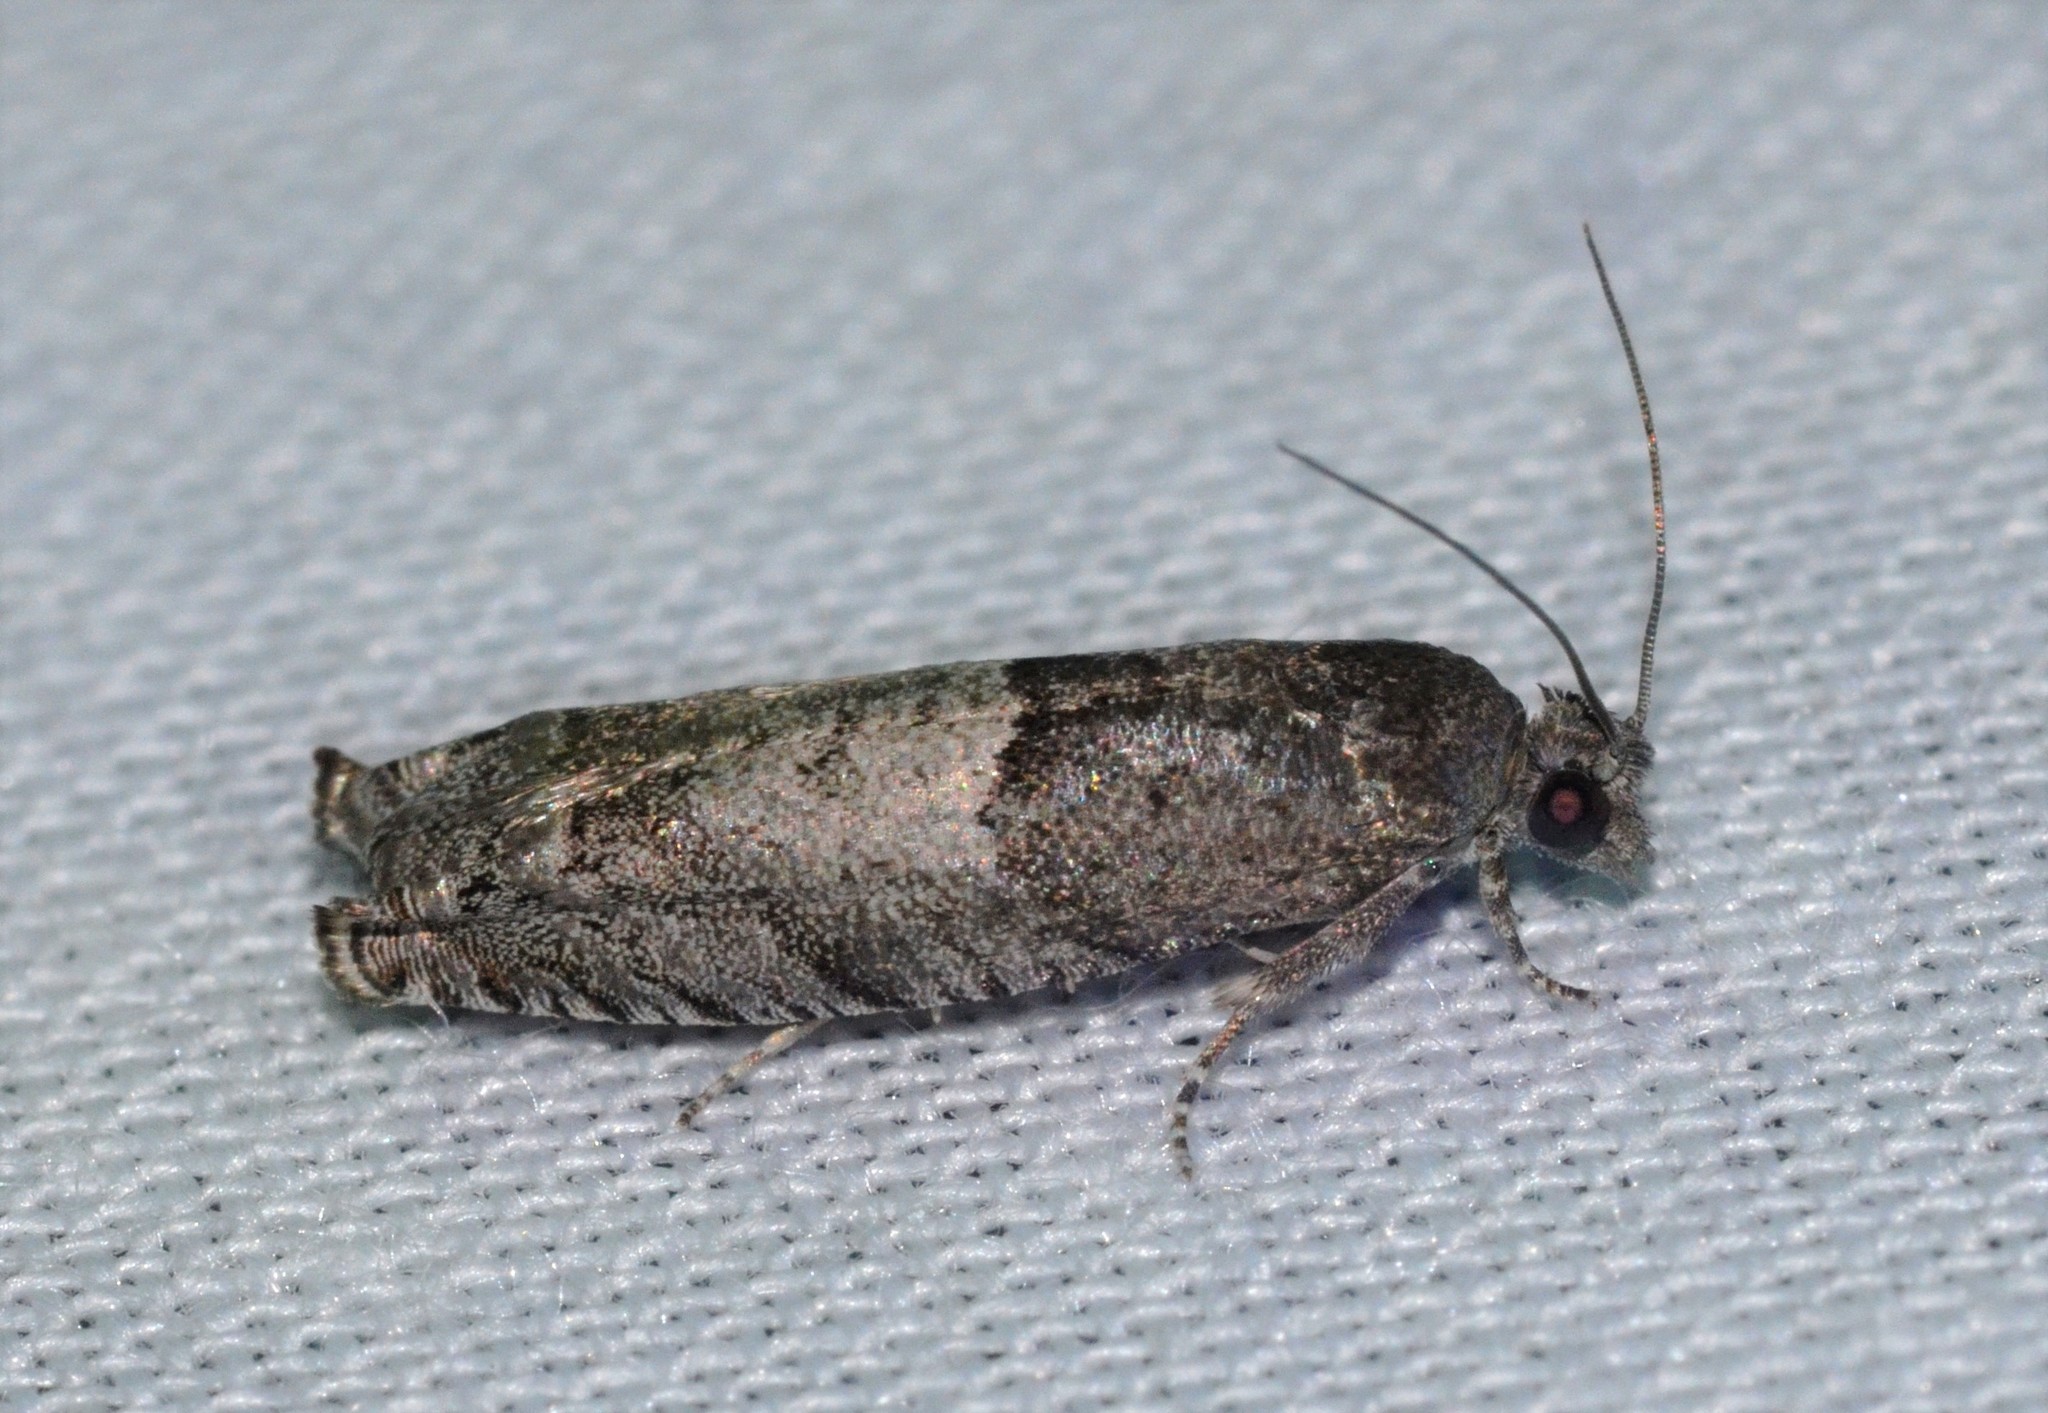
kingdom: Animalia
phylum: Arthropoda
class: Insecta
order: Lepidoptera
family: Tortricidae
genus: Pseudexentera
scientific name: Pseudexentera cressoniana
